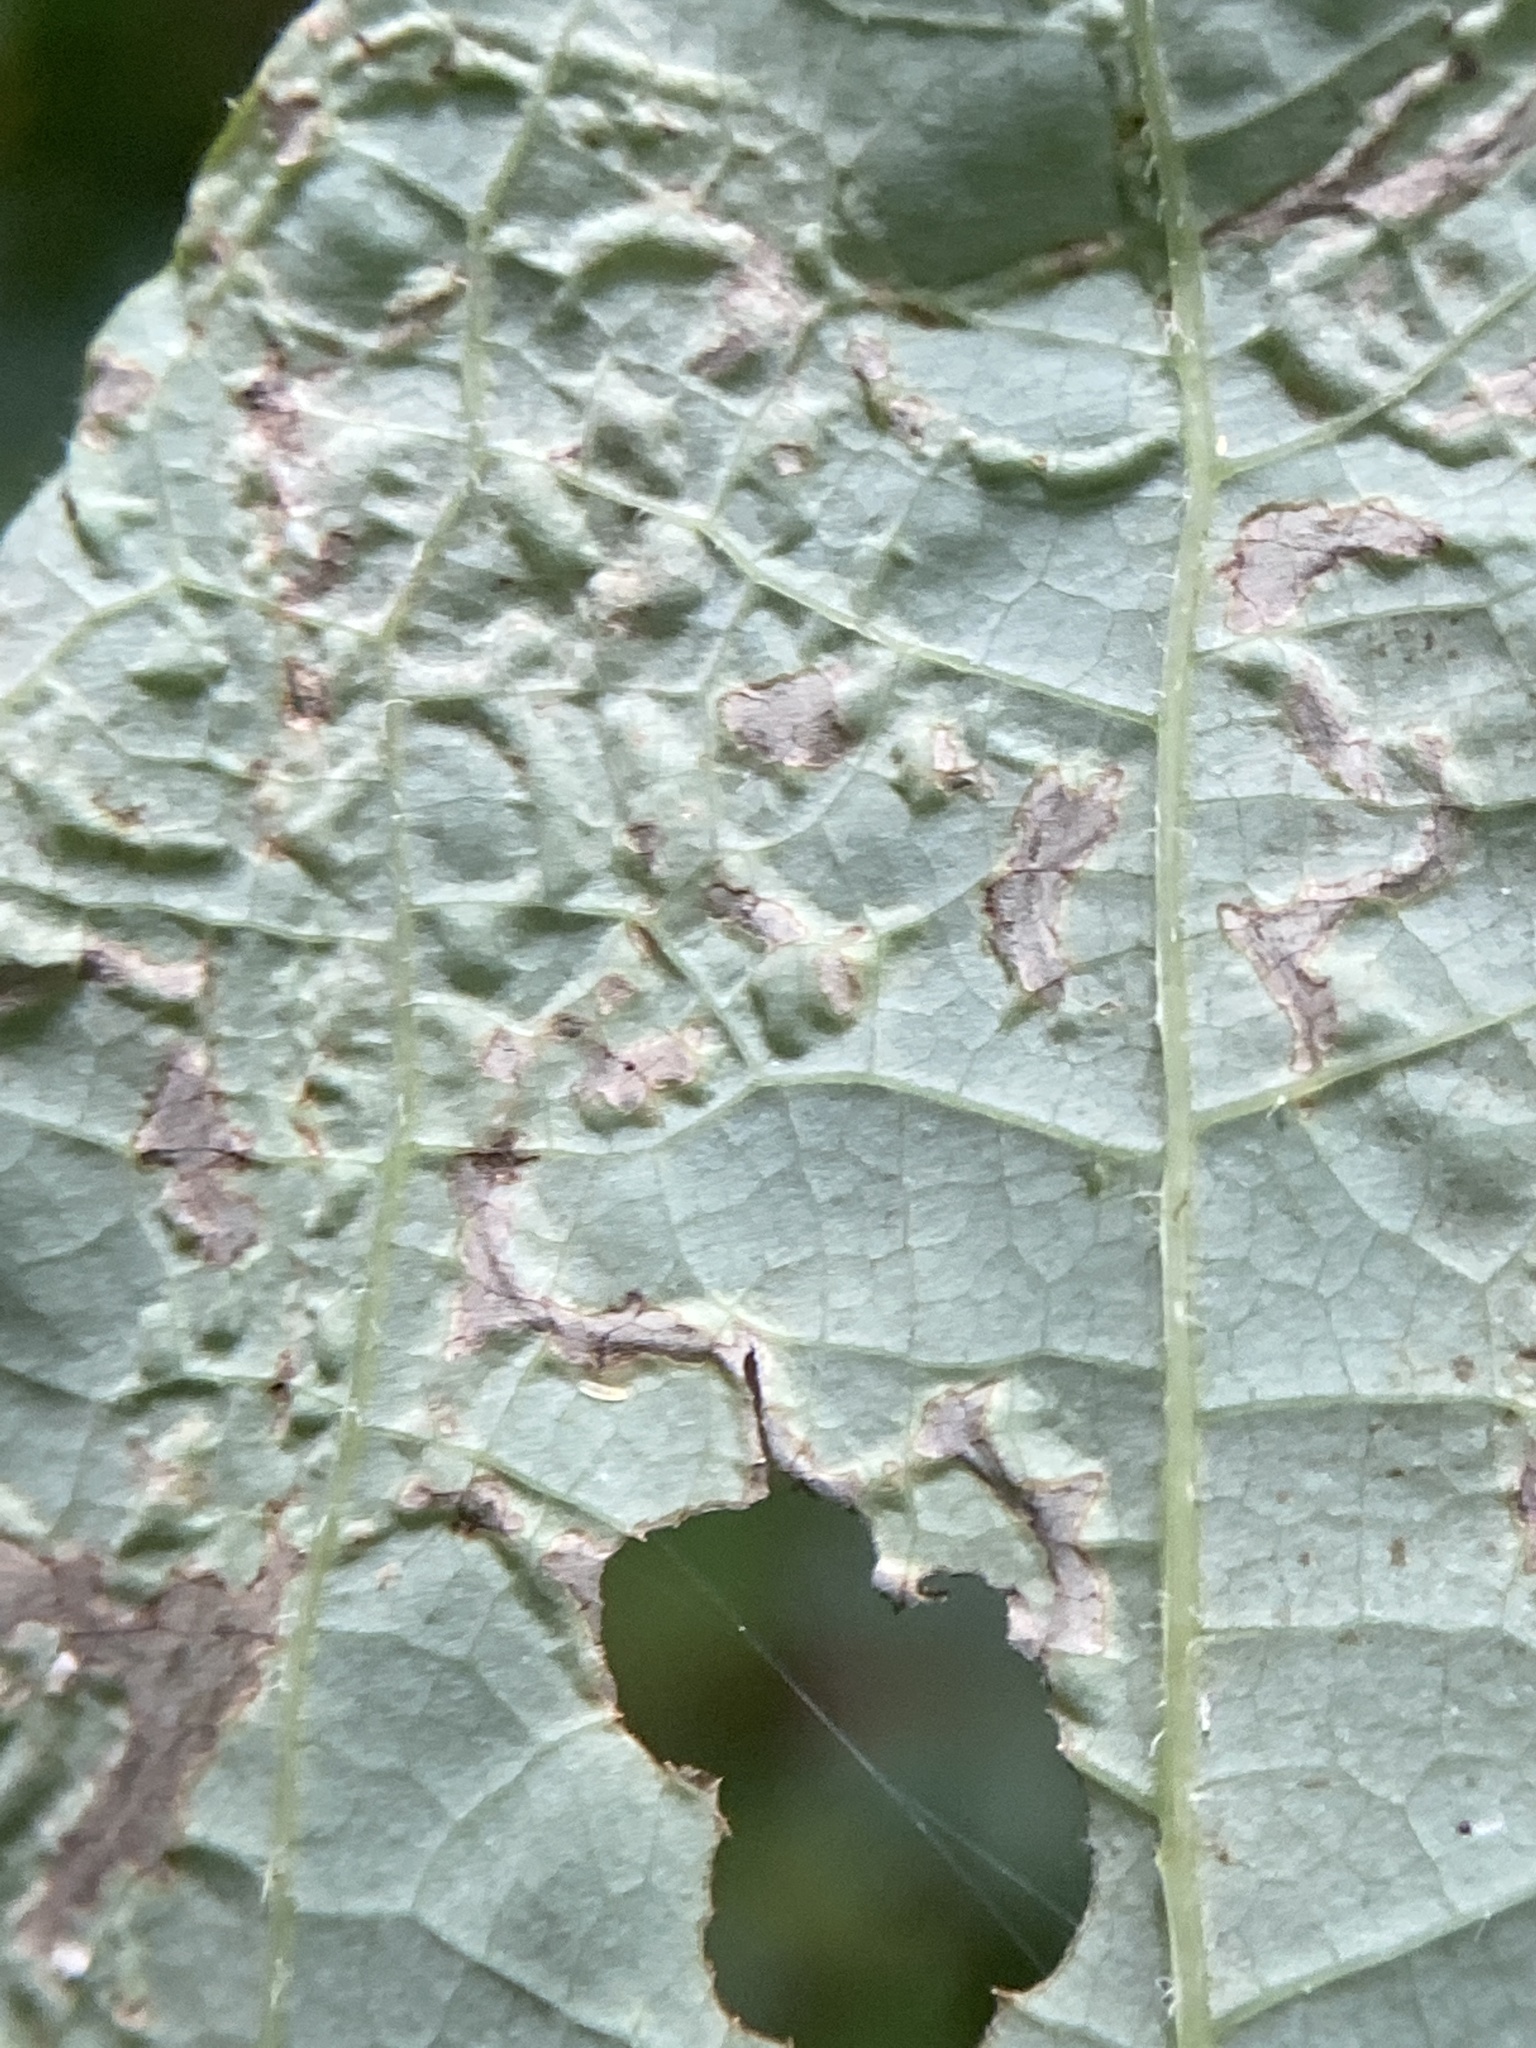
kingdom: Animalia
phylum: Arthropoda
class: Insecta
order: Lepidoptera
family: Gracillariidae
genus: Phyllocnistis
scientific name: Phyllocnistis liriodendronella
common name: Tulip tree leaf miner
